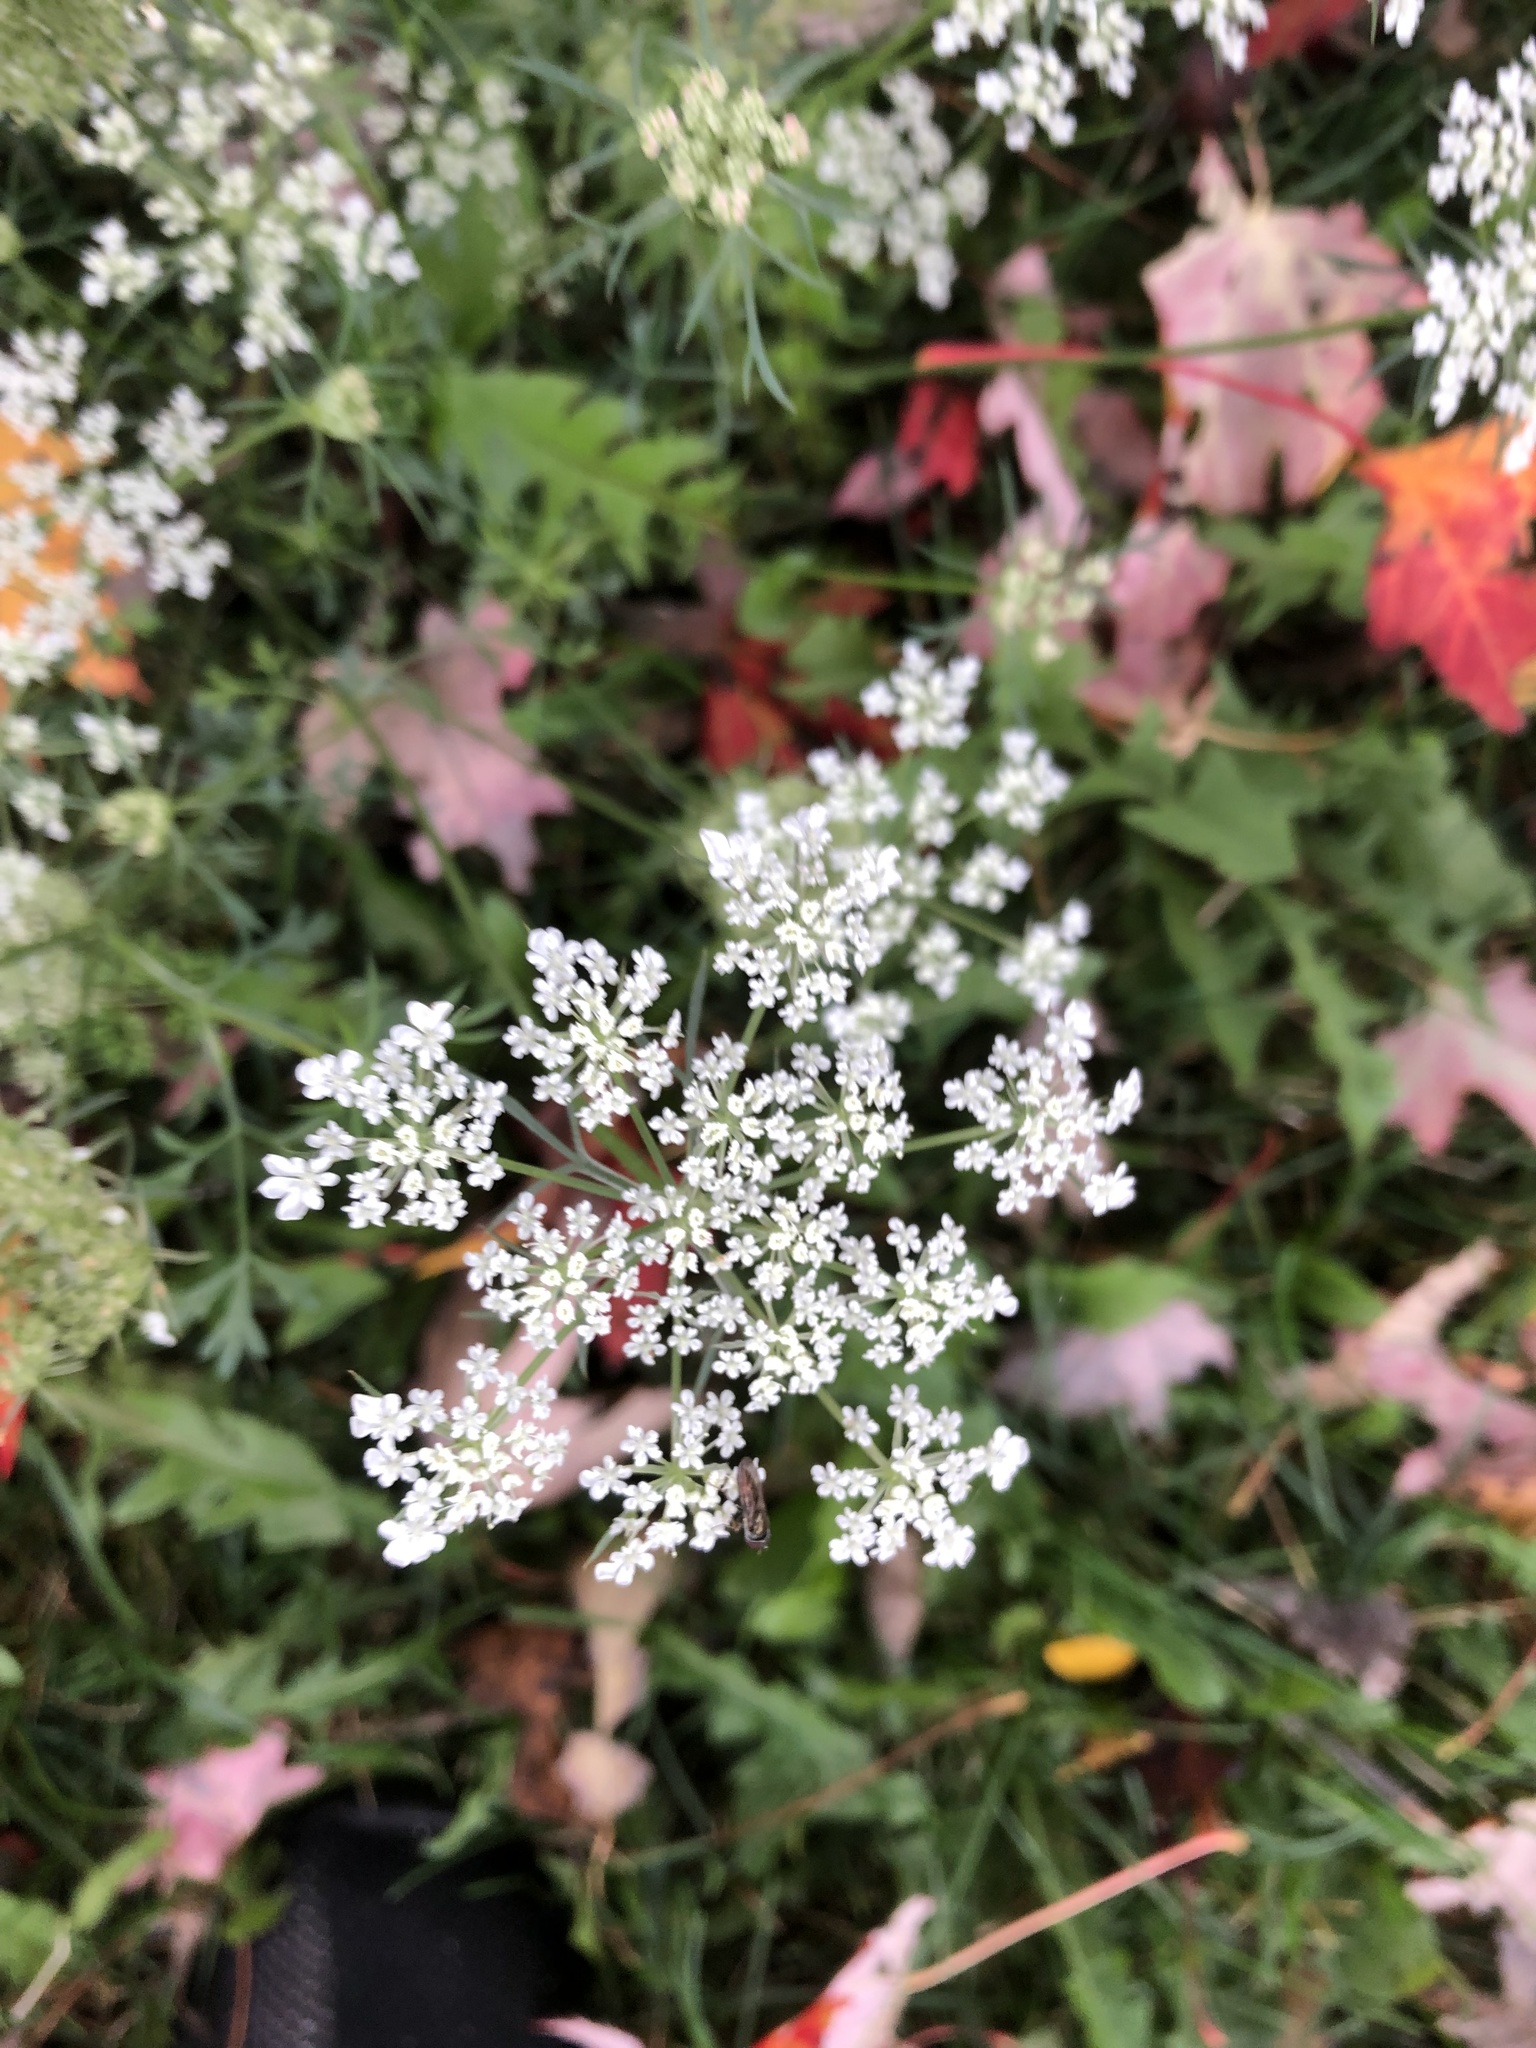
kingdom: Plantae
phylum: Tracheophyta
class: Magnoliopsida
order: Apiales
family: Apiaceae
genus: Daucus
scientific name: Daucus carota
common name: Wild carrot
